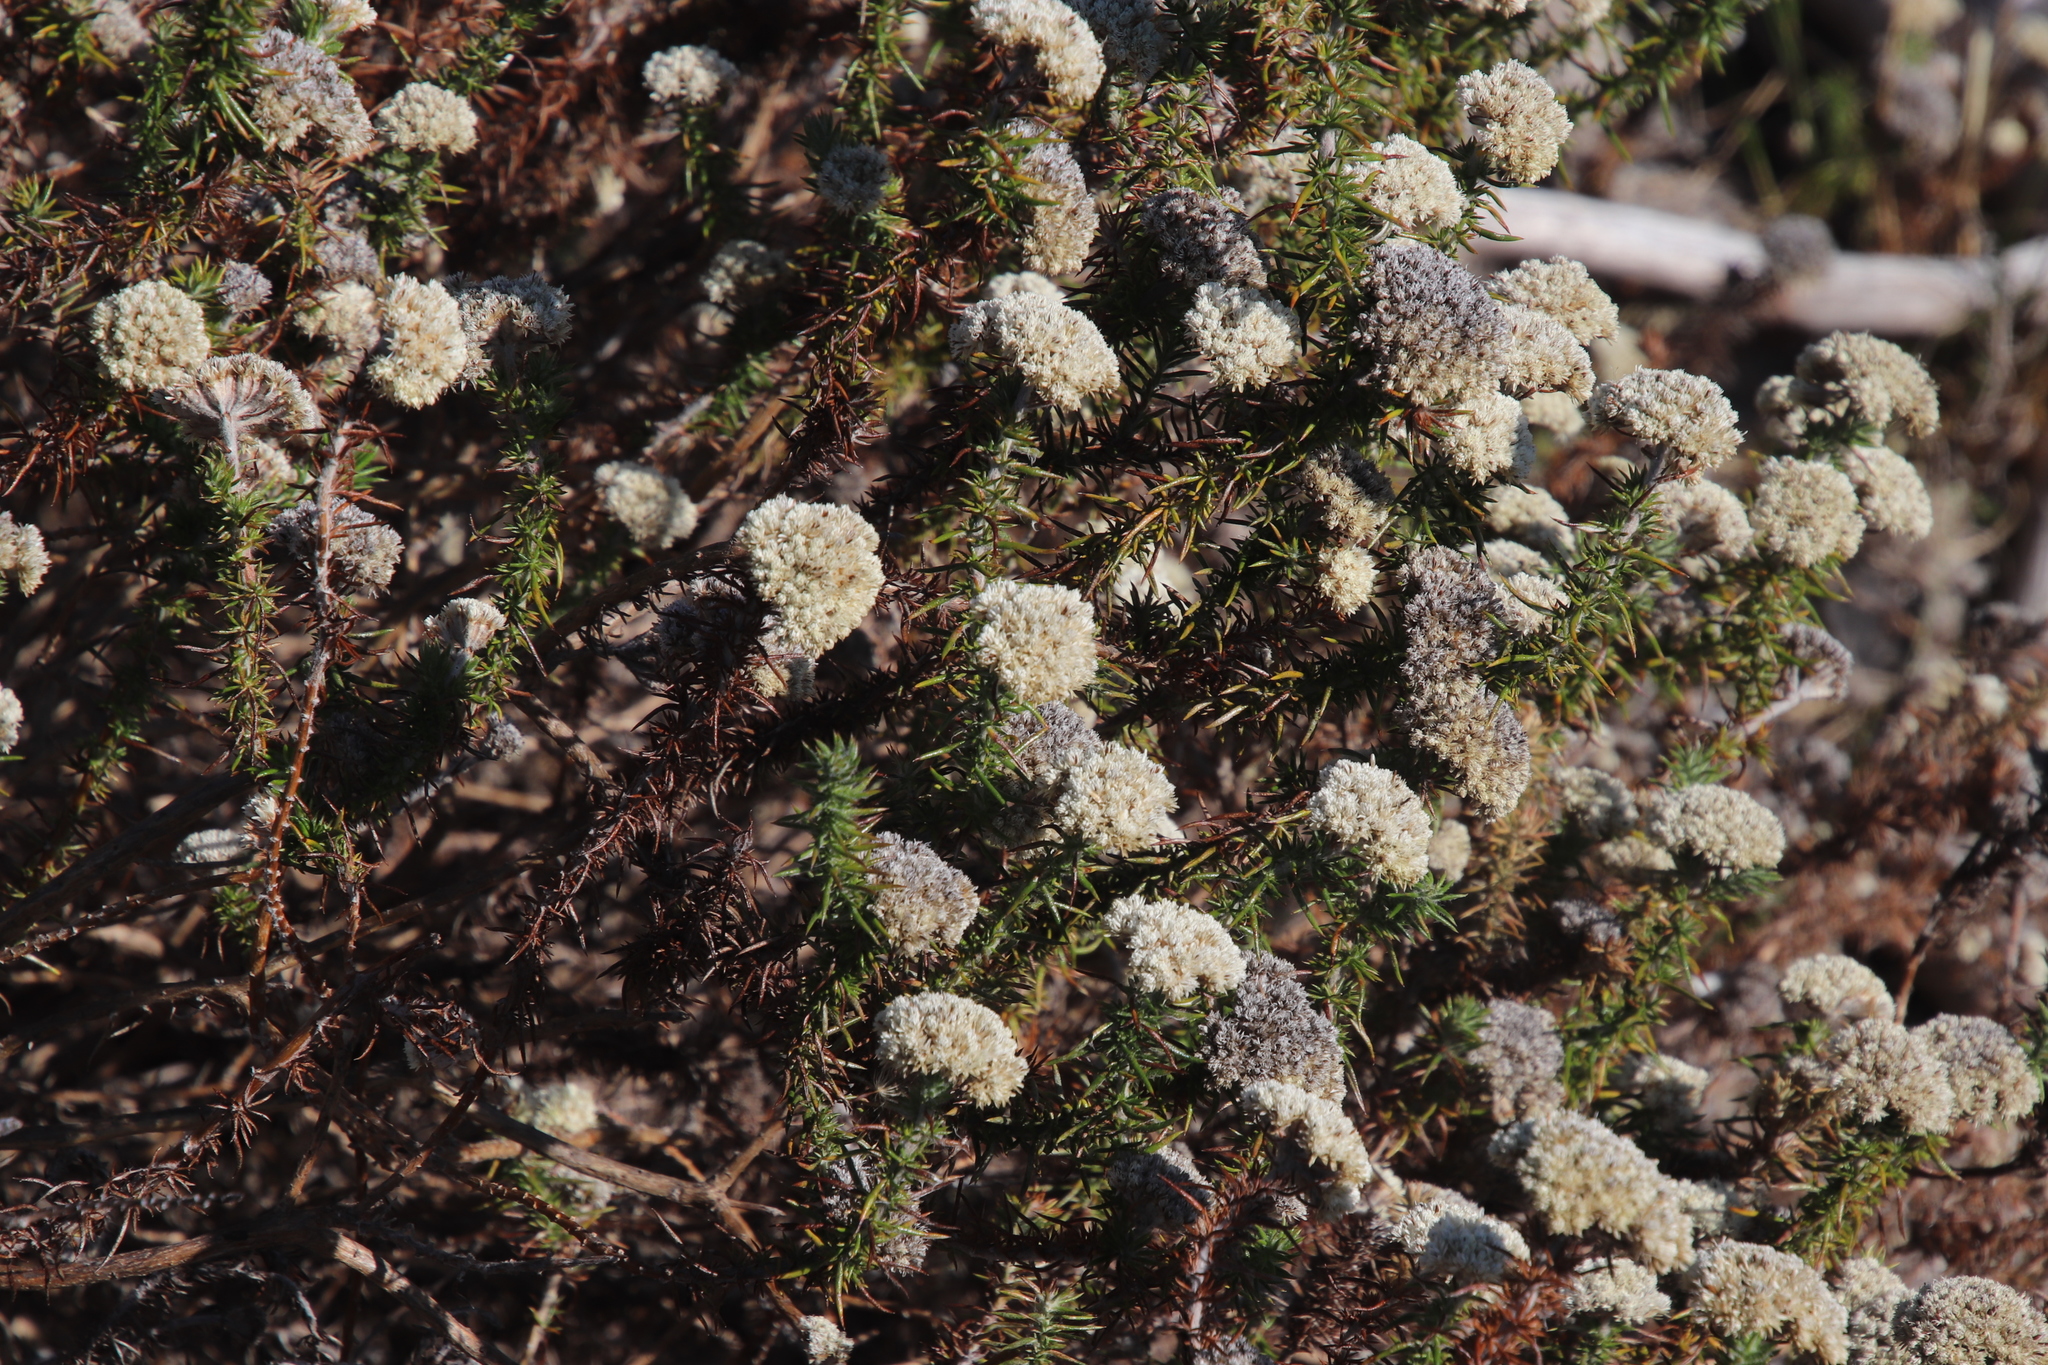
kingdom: Plantae
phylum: Tracheophyta
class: Magnoliopsida
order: Asterales
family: Asteraceae
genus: Metalasia
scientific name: Metalasia pulchella
